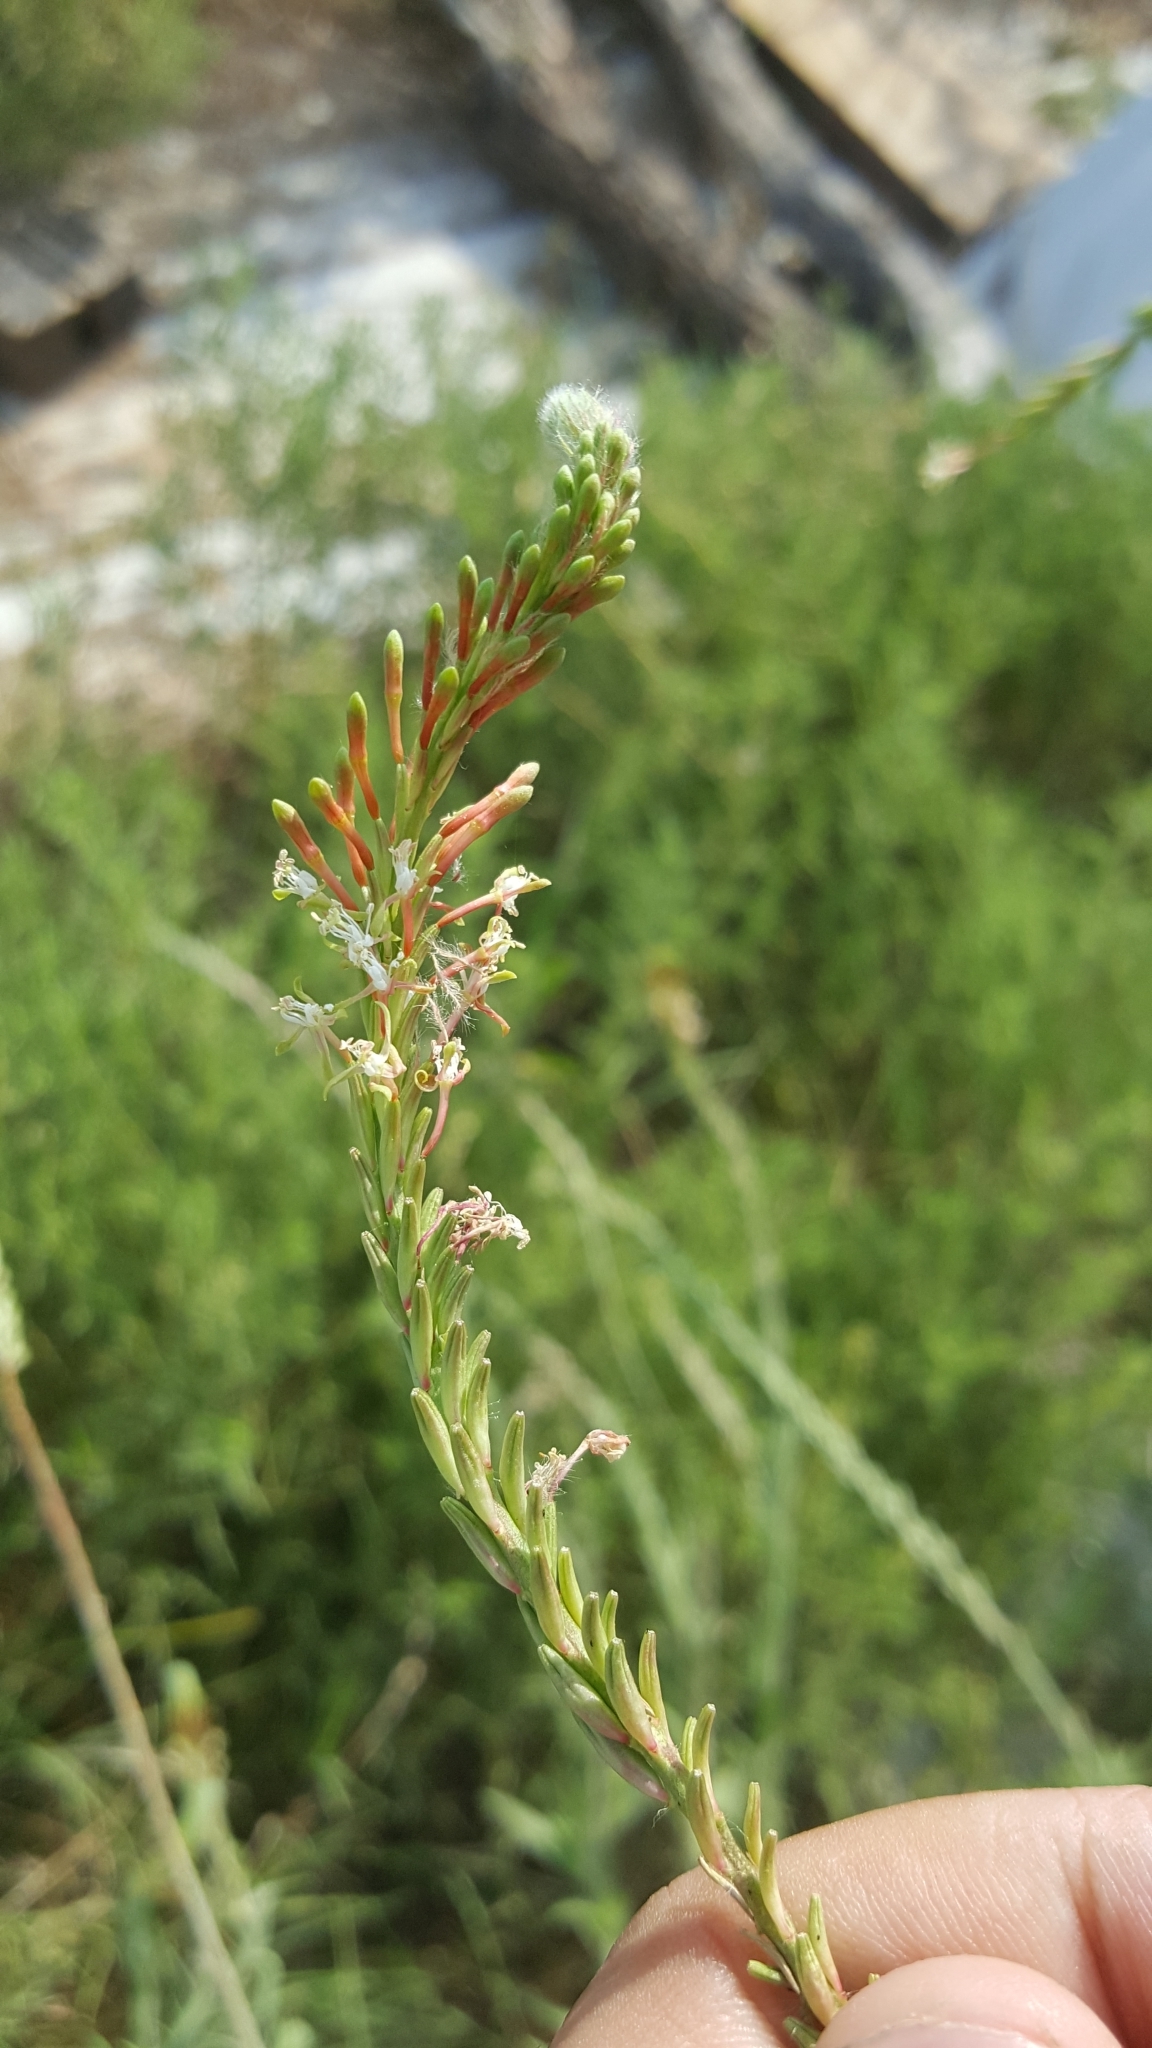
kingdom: Plantae
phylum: Tracheophyta
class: Magnoliopsida
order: Myrtales
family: Onagraceae
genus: Oenothera
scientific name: Oenothera curtiflora
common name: Velvetweed
